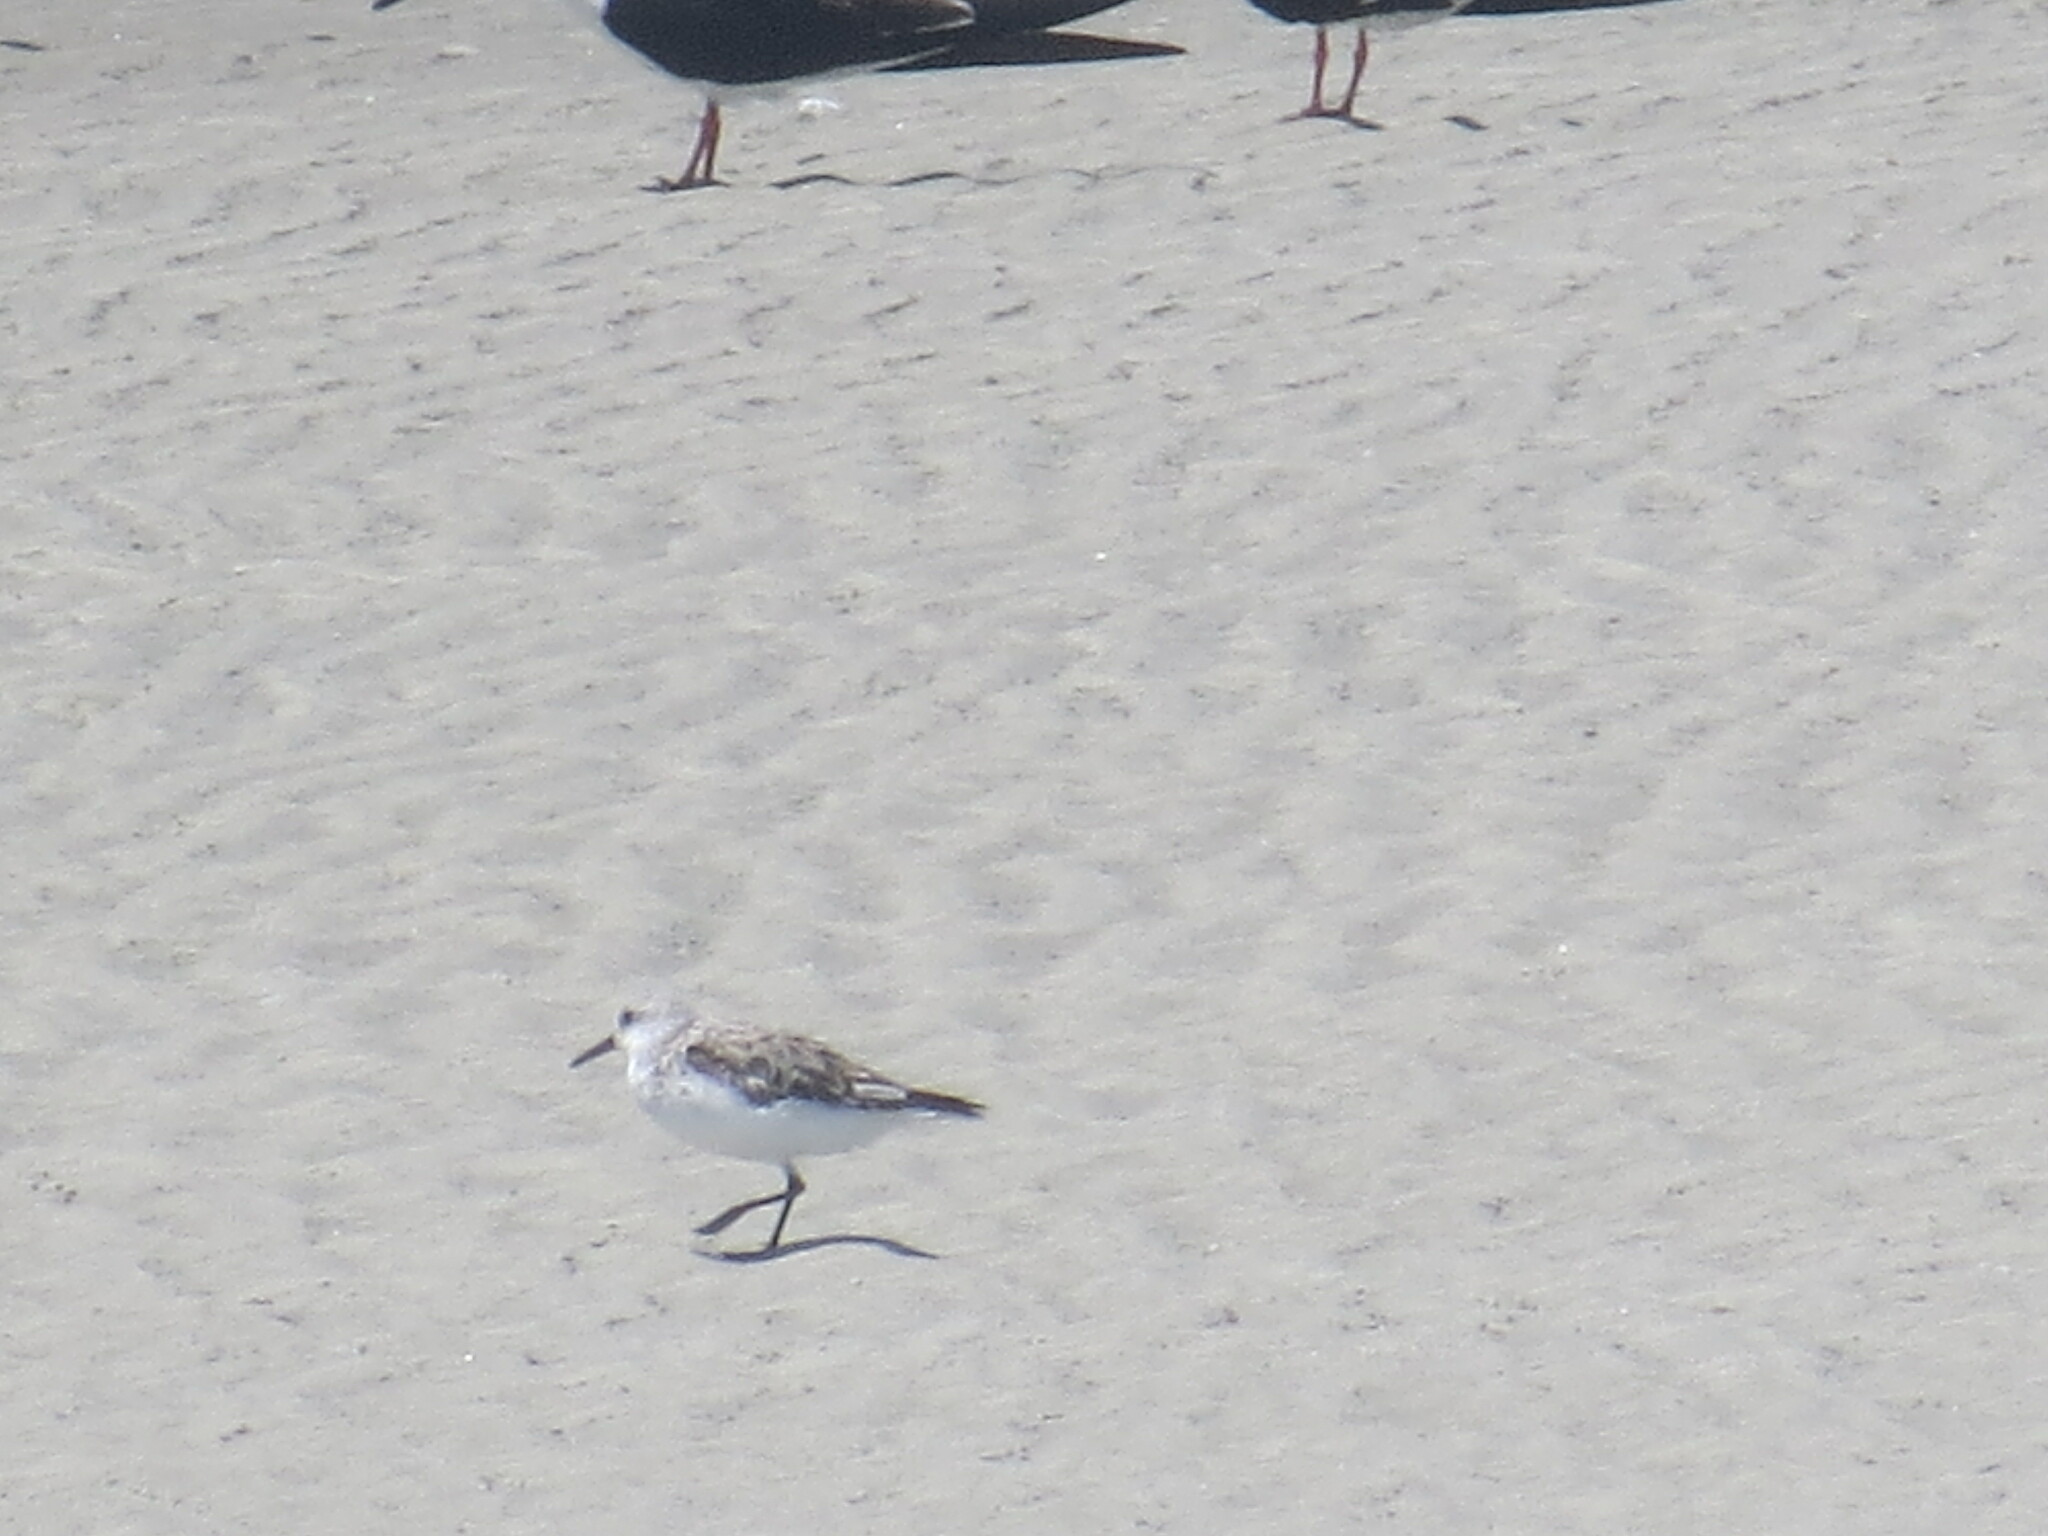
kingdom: Animalia
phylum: Chordata
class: Aves
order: Charadriiformes
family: Scolopacidae
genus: Calidris
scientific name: Calidris alba
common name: Sanderling
